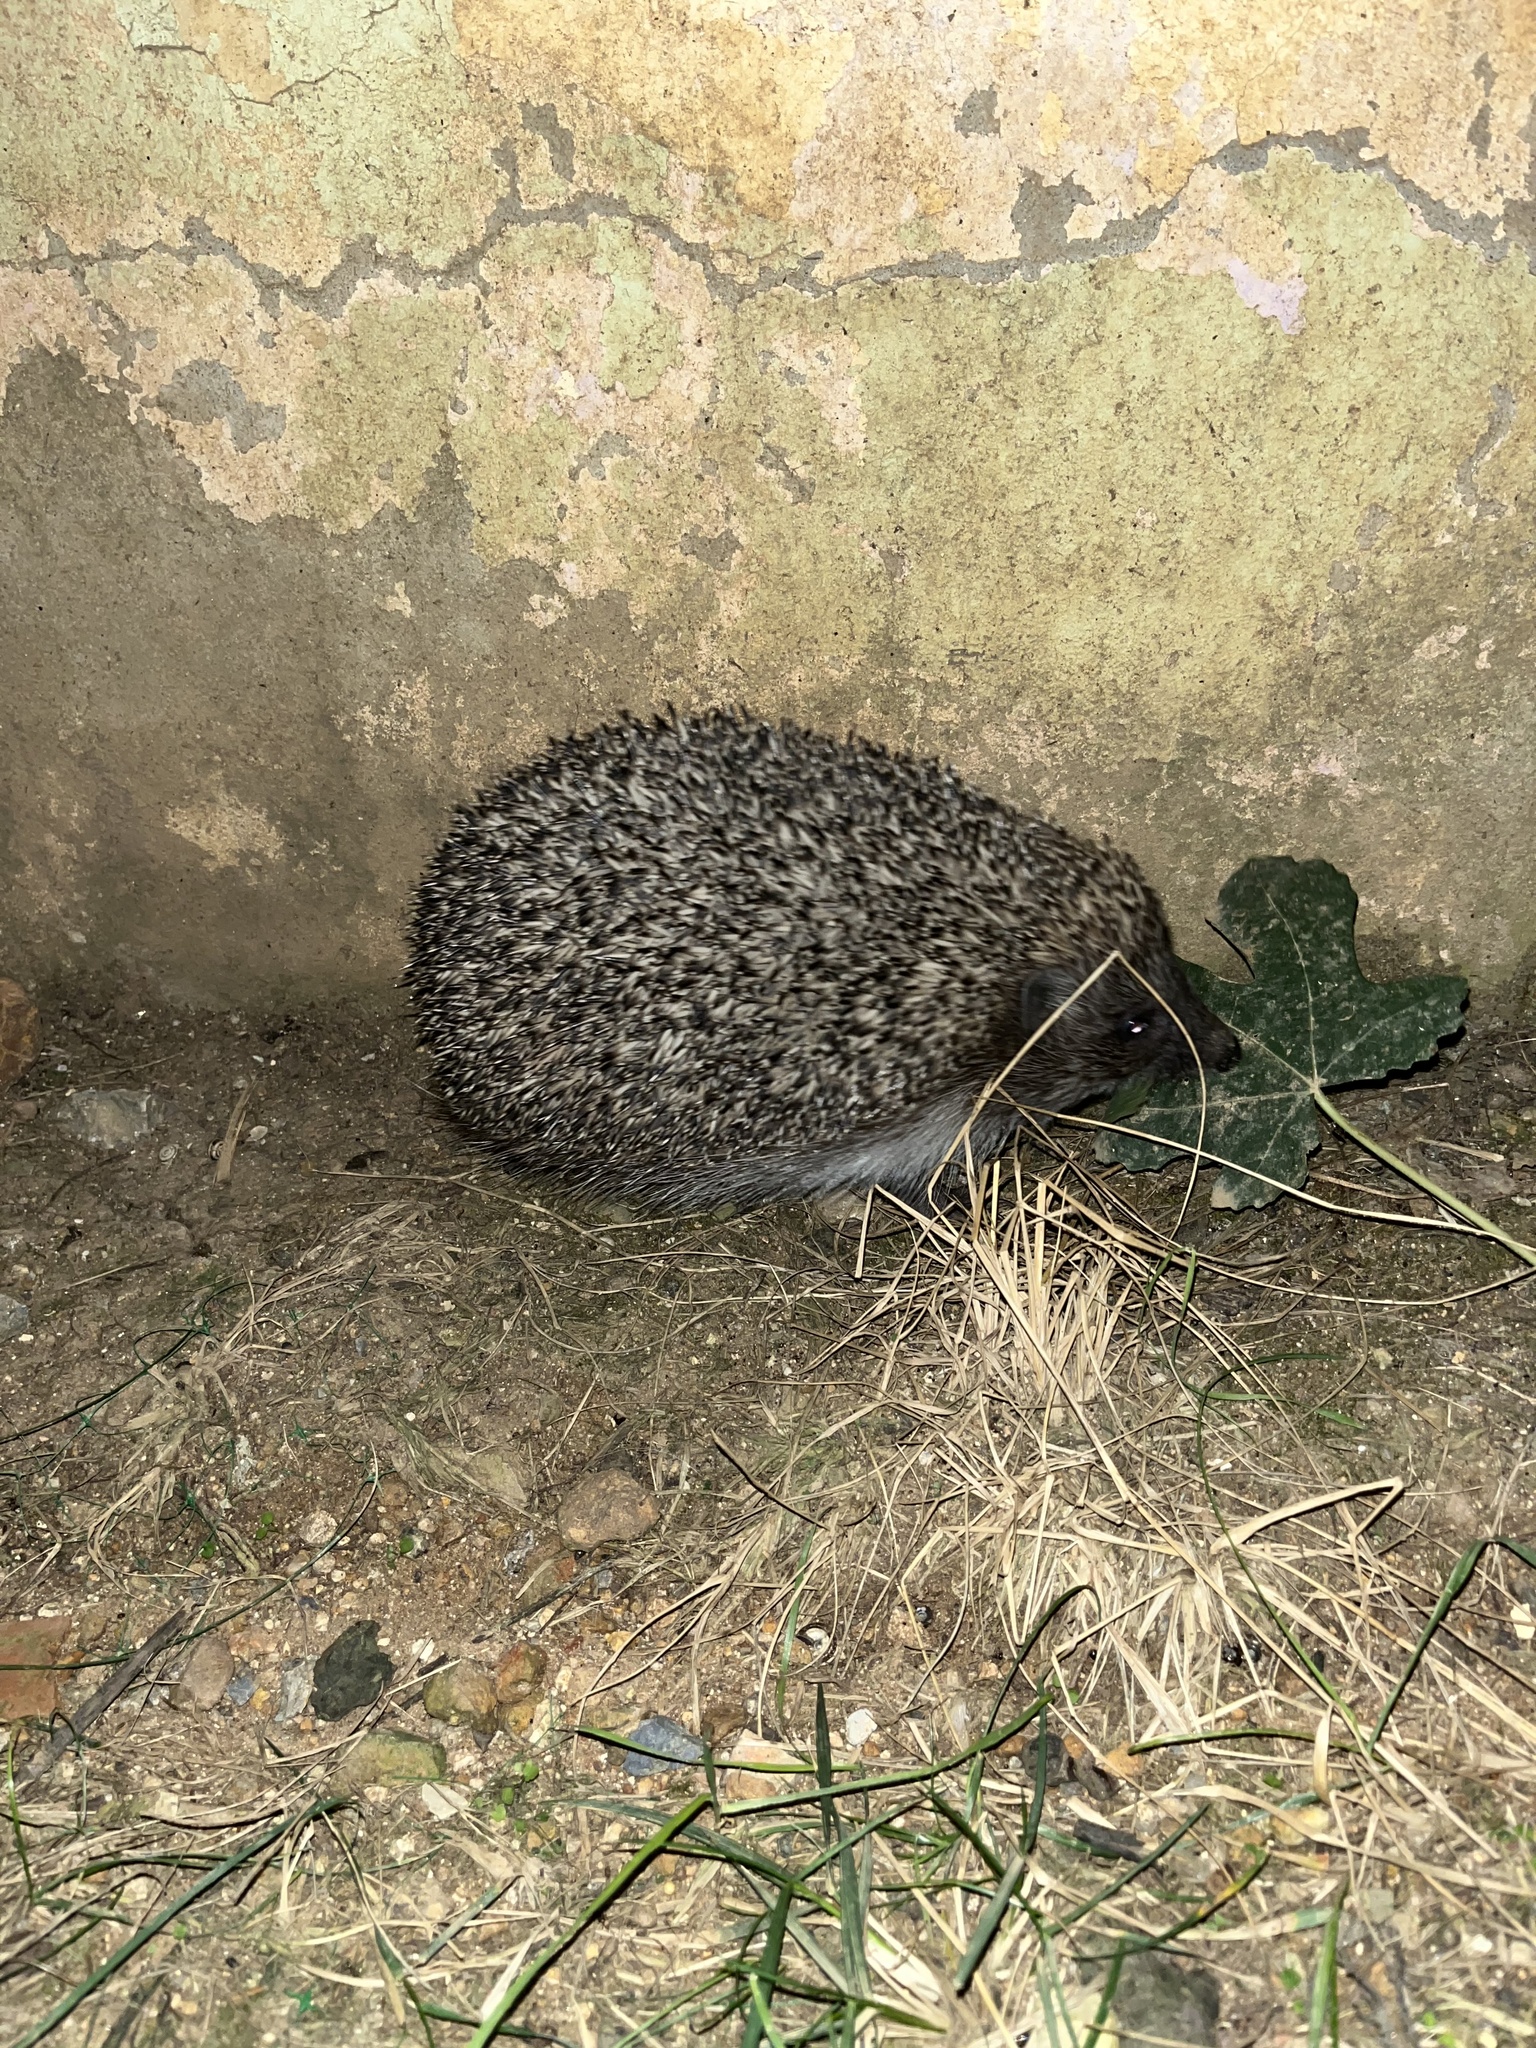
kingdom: Animalia
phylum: Chordata
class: Mammalia
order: Erinaceomorpha
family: Erinaceidae
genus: Erinaceus
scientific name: Erinaceus concolor
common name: Southern white-breasted hedgehog
